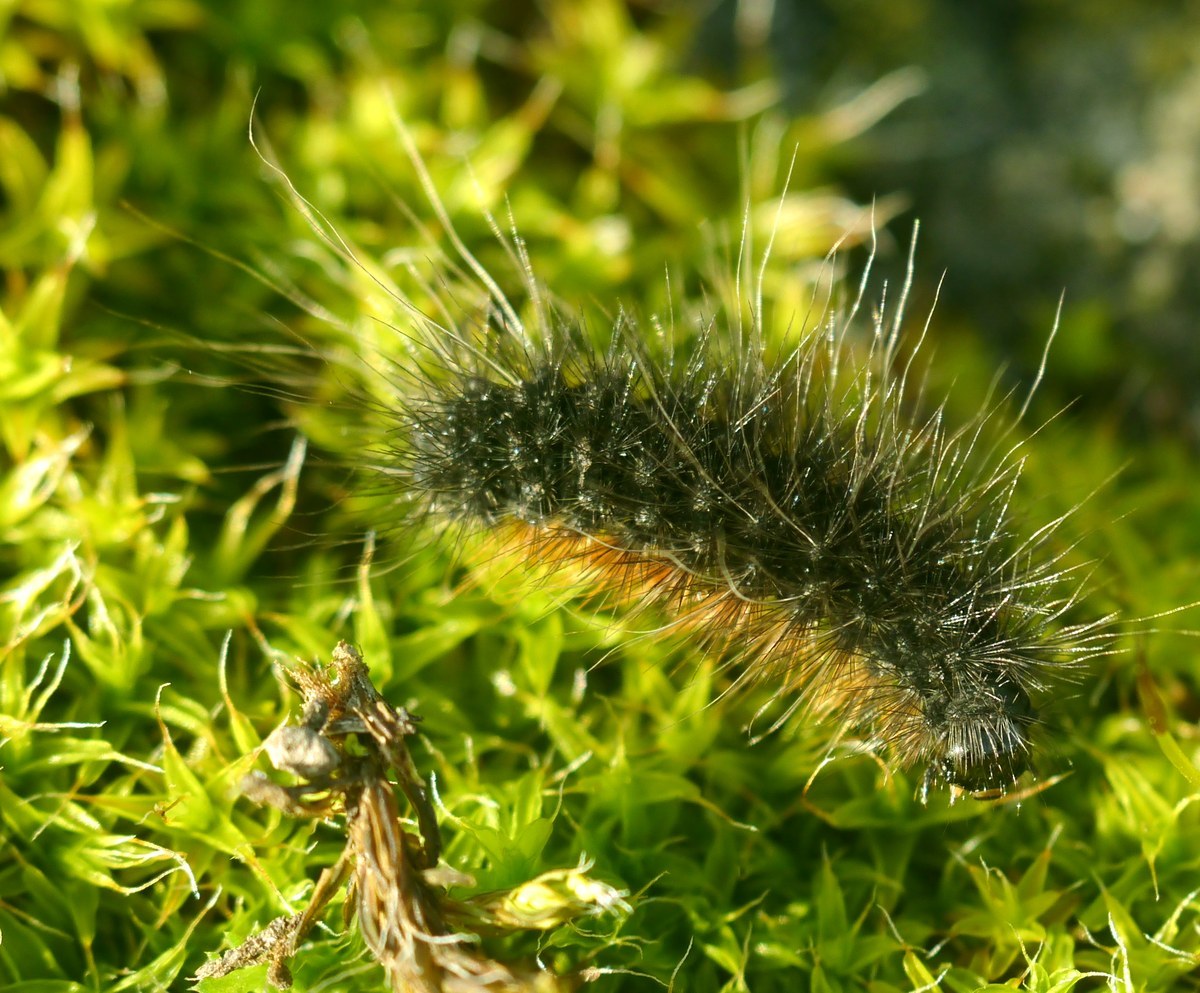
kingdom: Animalia
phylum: Arthropoda
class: Insecta
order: Lepidoptera
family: Erebidae
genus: Eucharia
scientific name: Eucharia festiva
